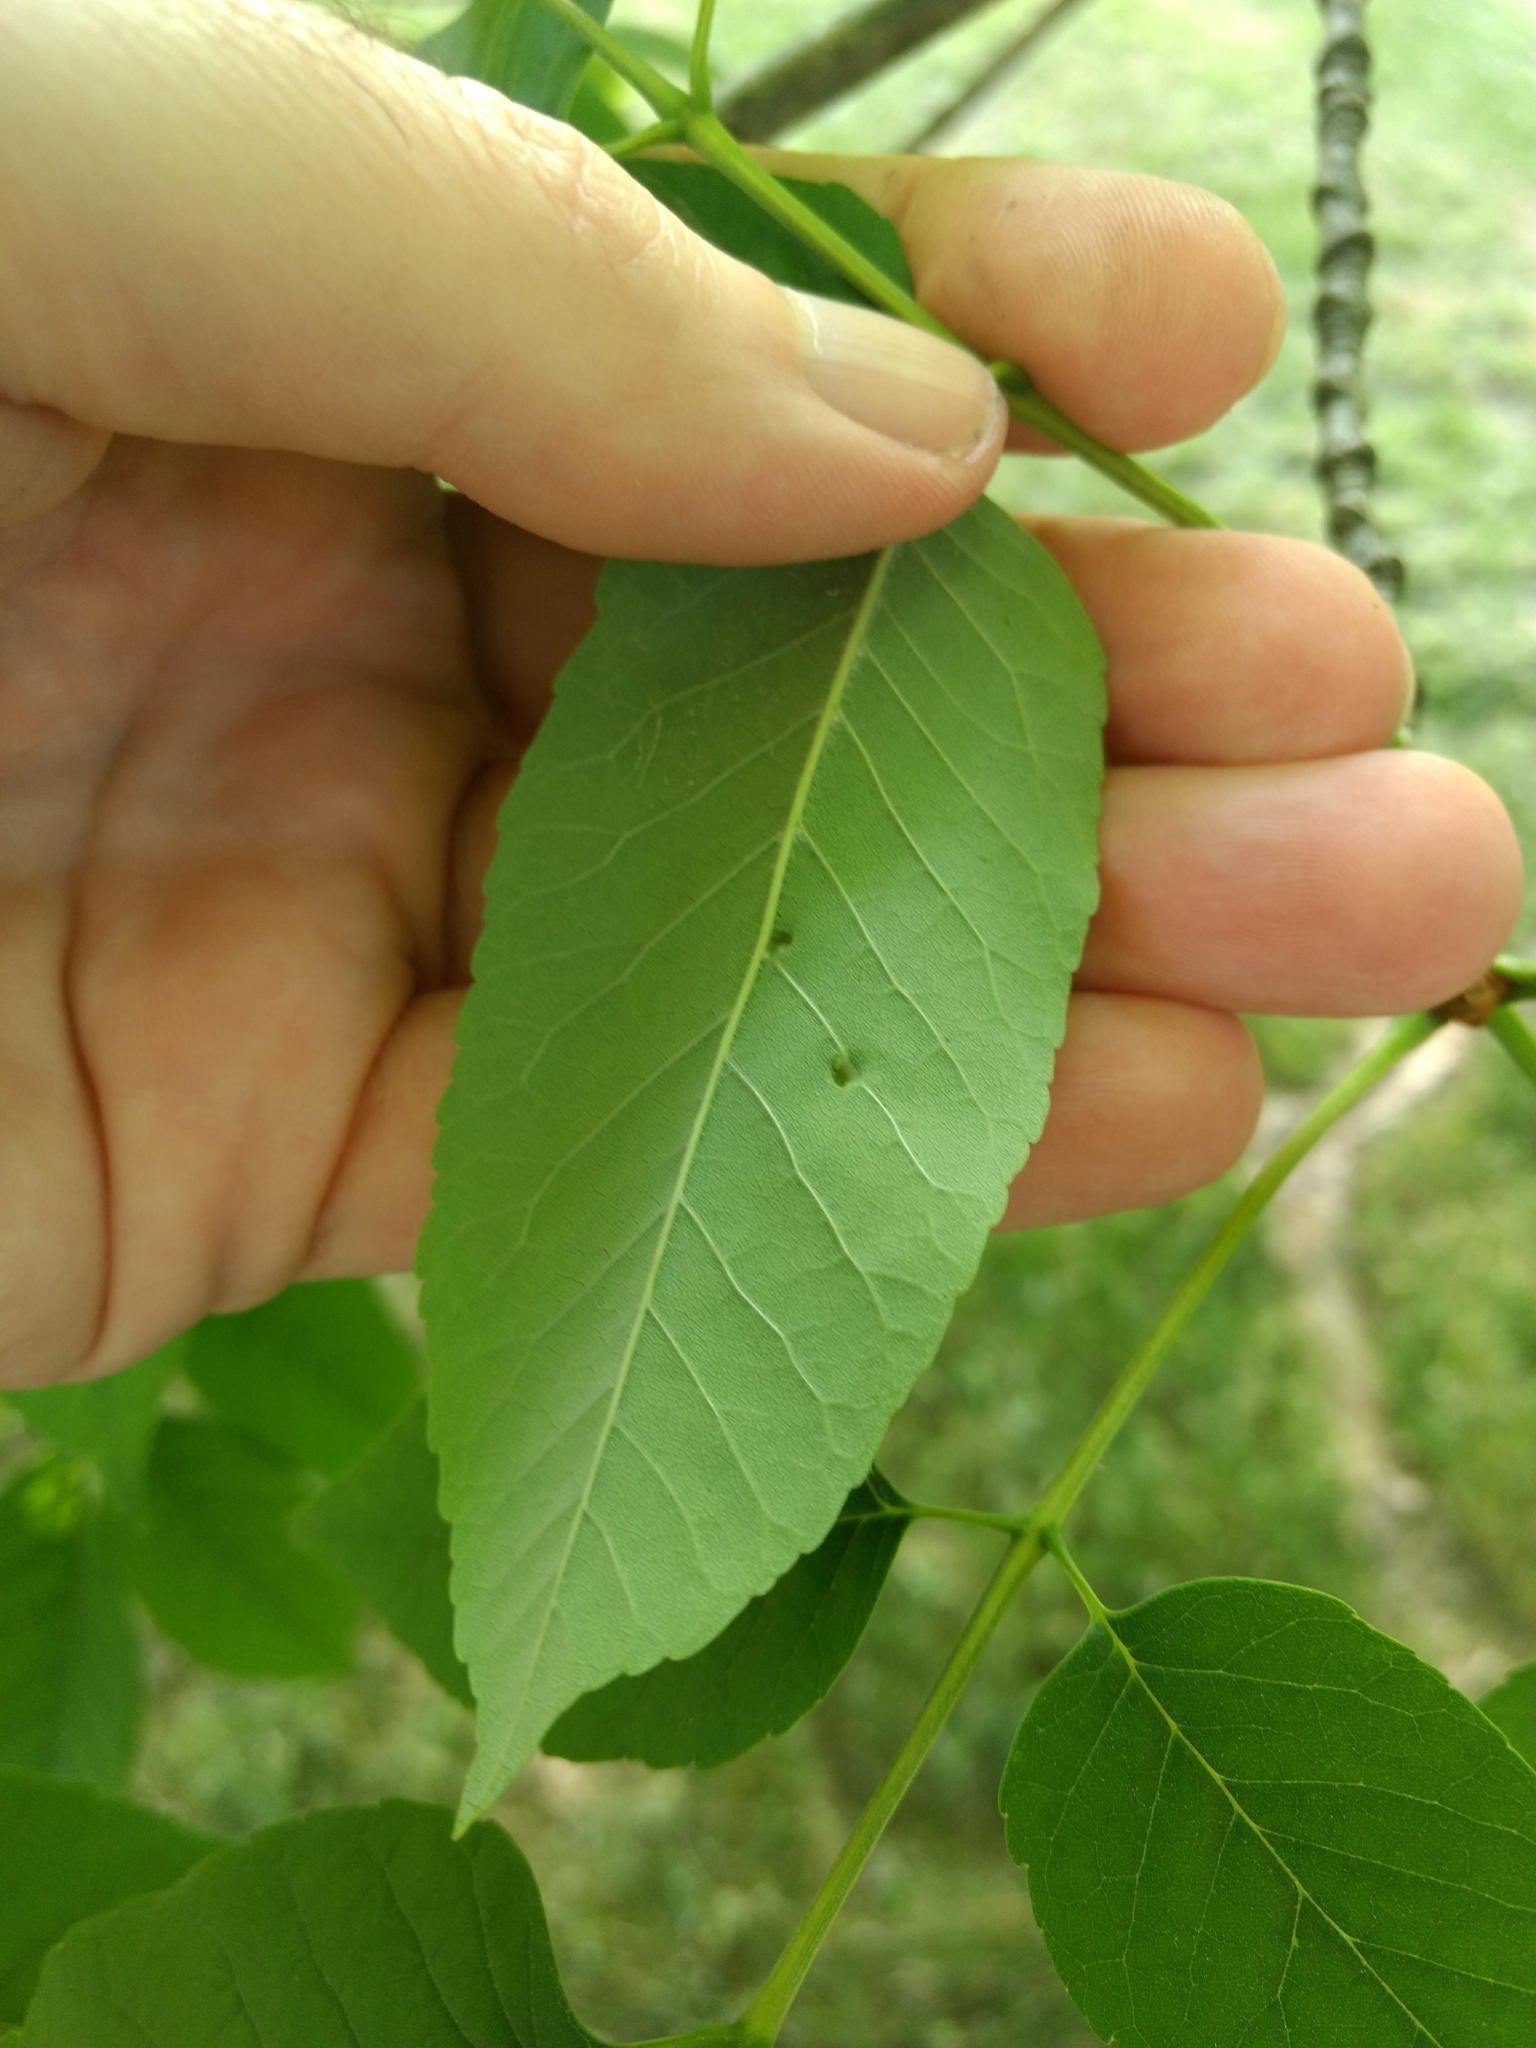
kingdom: Animalia
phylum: Arthropoda
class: Insecta
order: Diptera
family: Cecidomyiidae
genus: Dasineura
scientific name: Dasineura pellex
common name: Ash bullet gall midge
